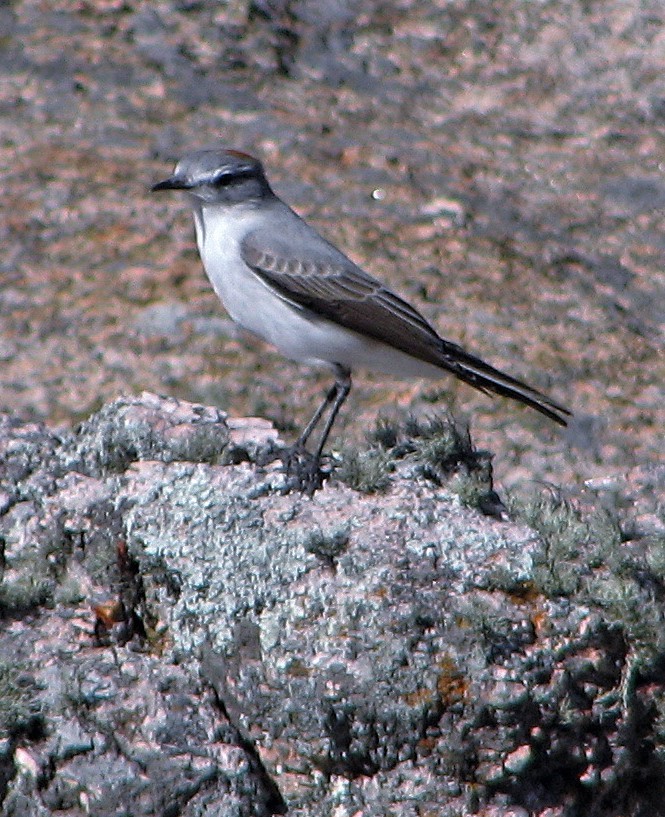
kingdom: Animalia
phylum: Chordata
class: Aves
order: Passeriformes
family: Tyrannidae
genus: Muscisaxicola
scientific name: Muscisaxicola rufivertex
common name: Rufous-naped ground tyrant
